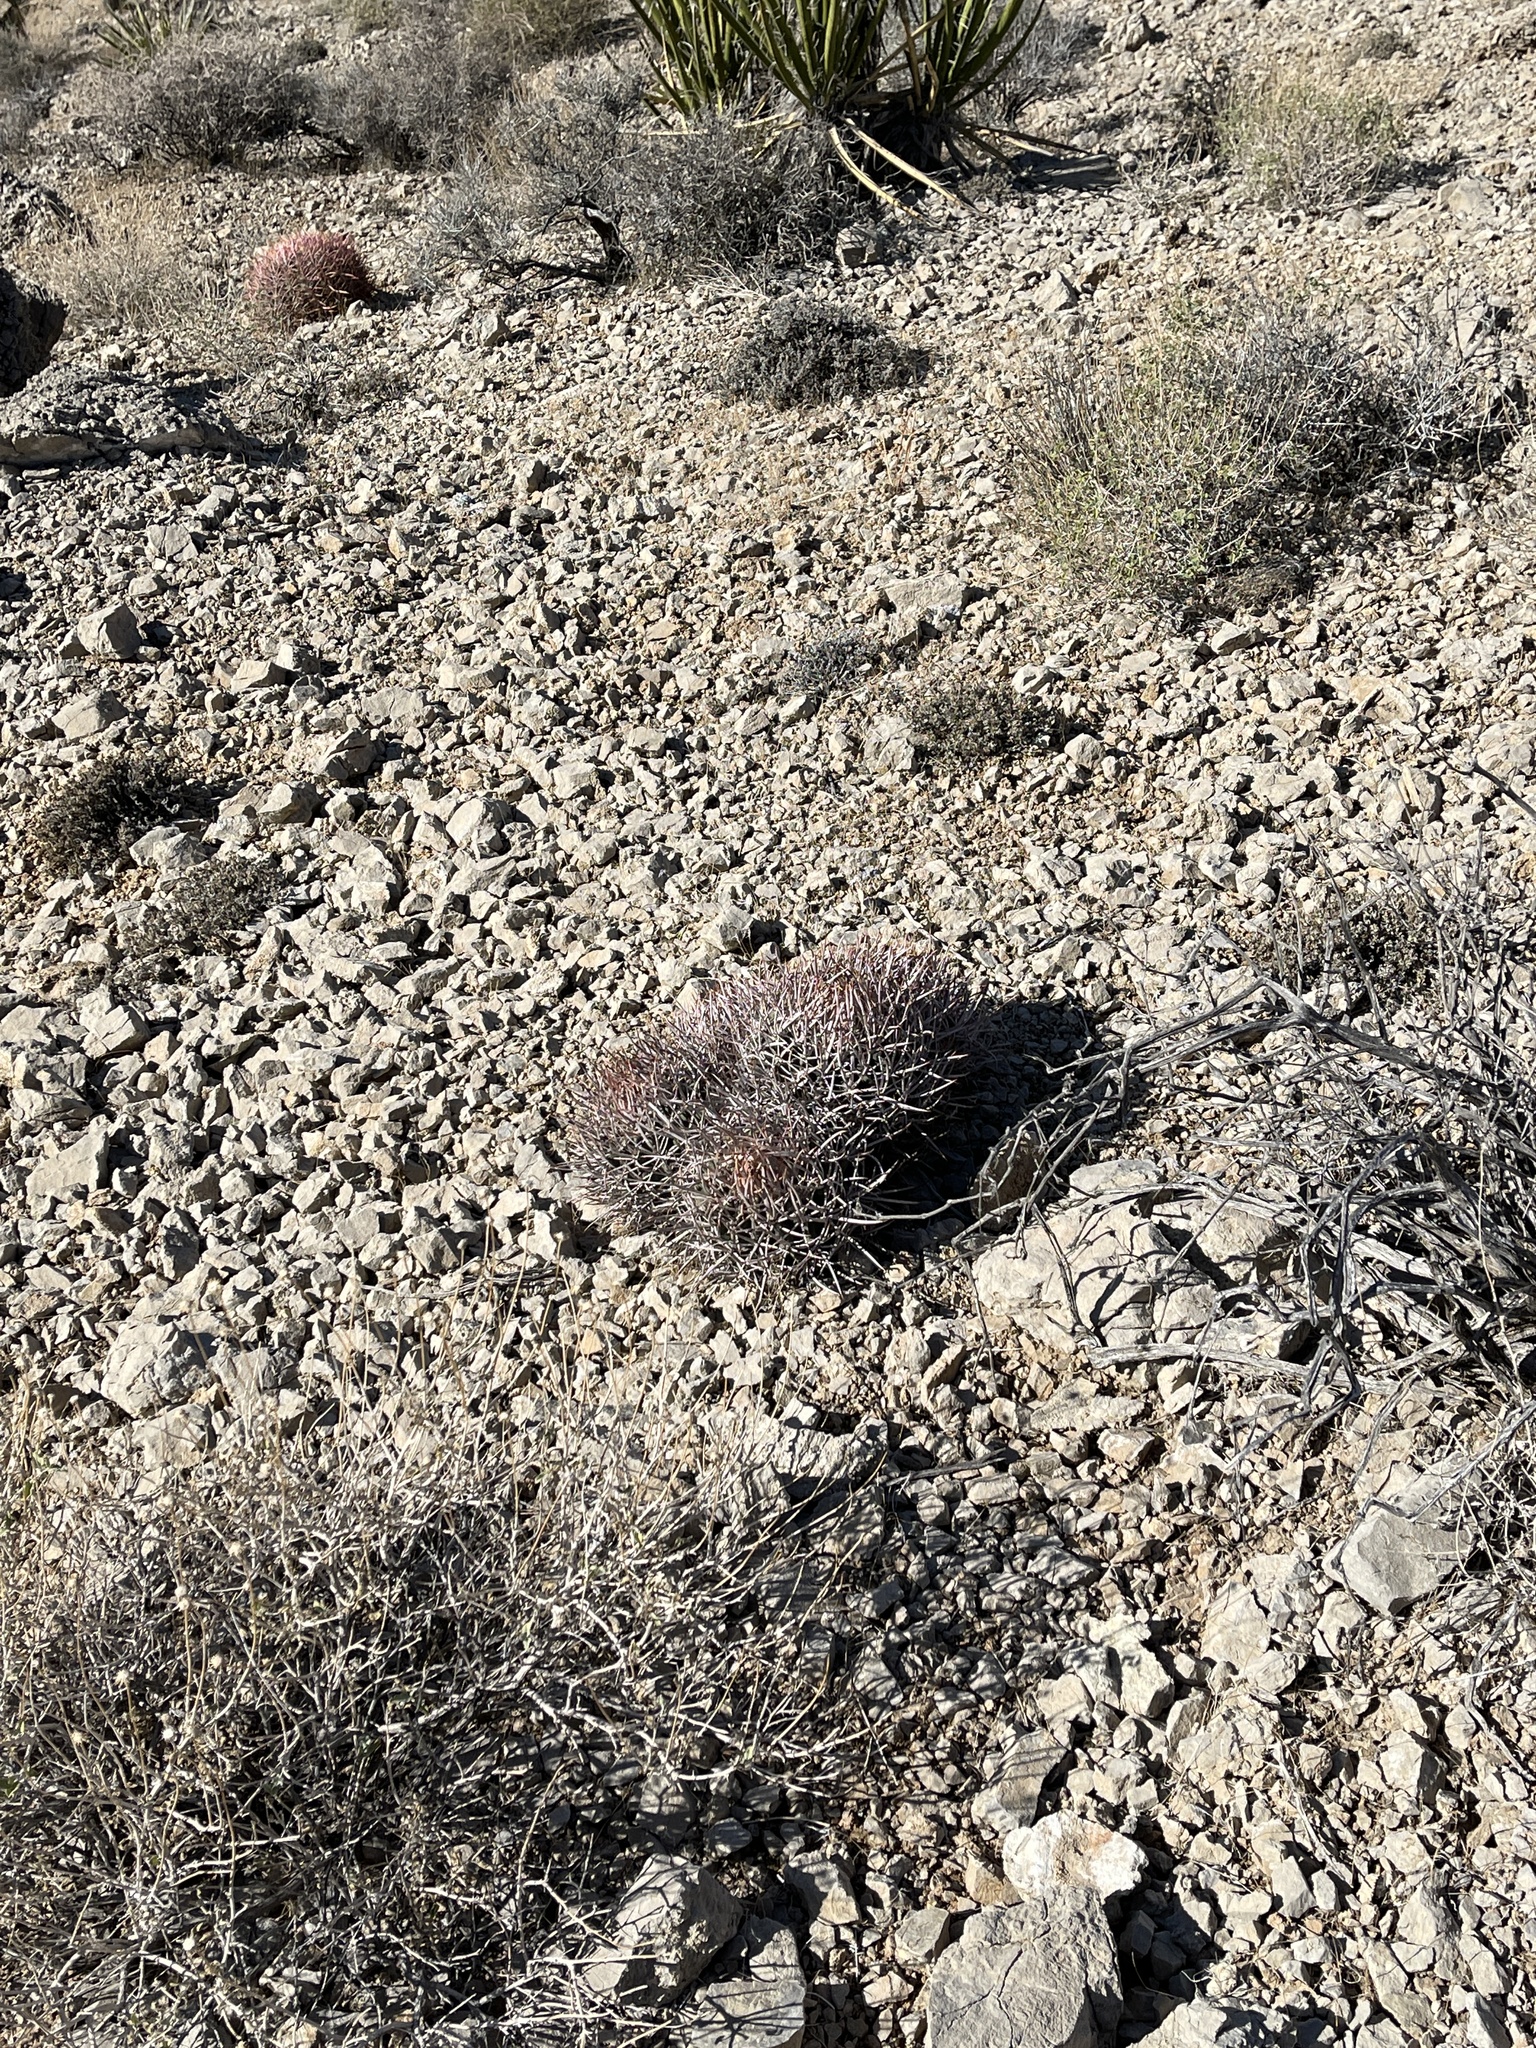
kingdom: Plantae
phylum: Tracheophyta
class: Magnoliopsida
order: Caryophyllales
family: Cactaceae
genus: Echinocactus
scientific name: Echinocactus polycephalus
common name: Cottontop cactus
